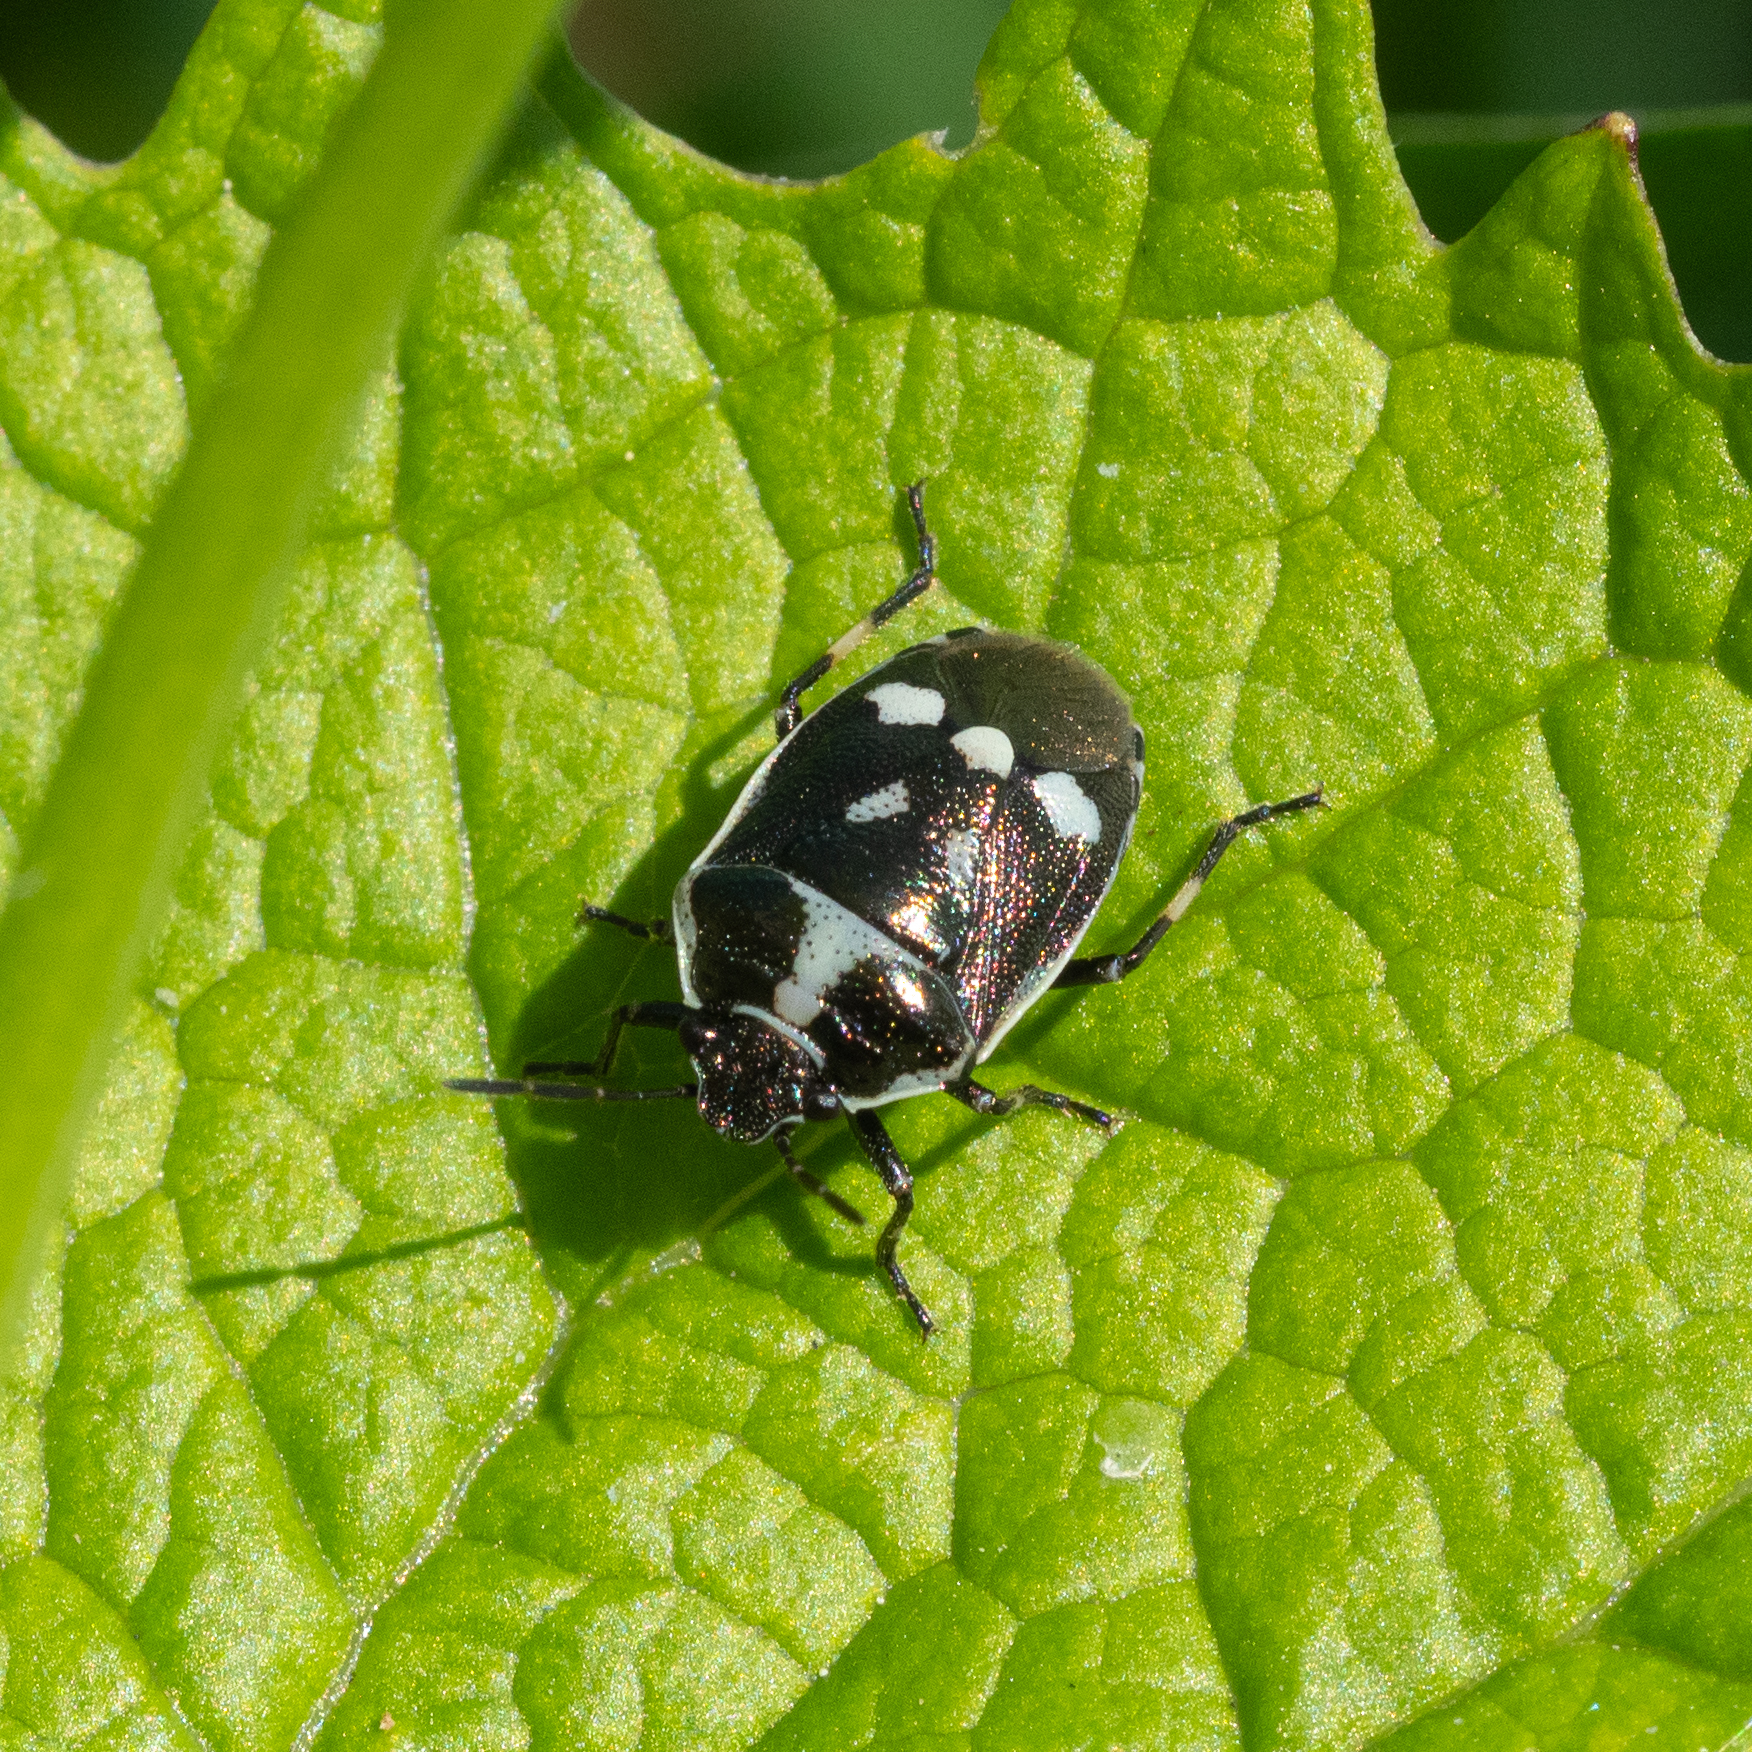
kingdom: Animalia
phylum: Arthropoda
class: Insecta
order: Hemiptera
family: Pentatomidae
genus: Eurydema
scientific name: Eurydema oleracea
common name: Cabbage bug
